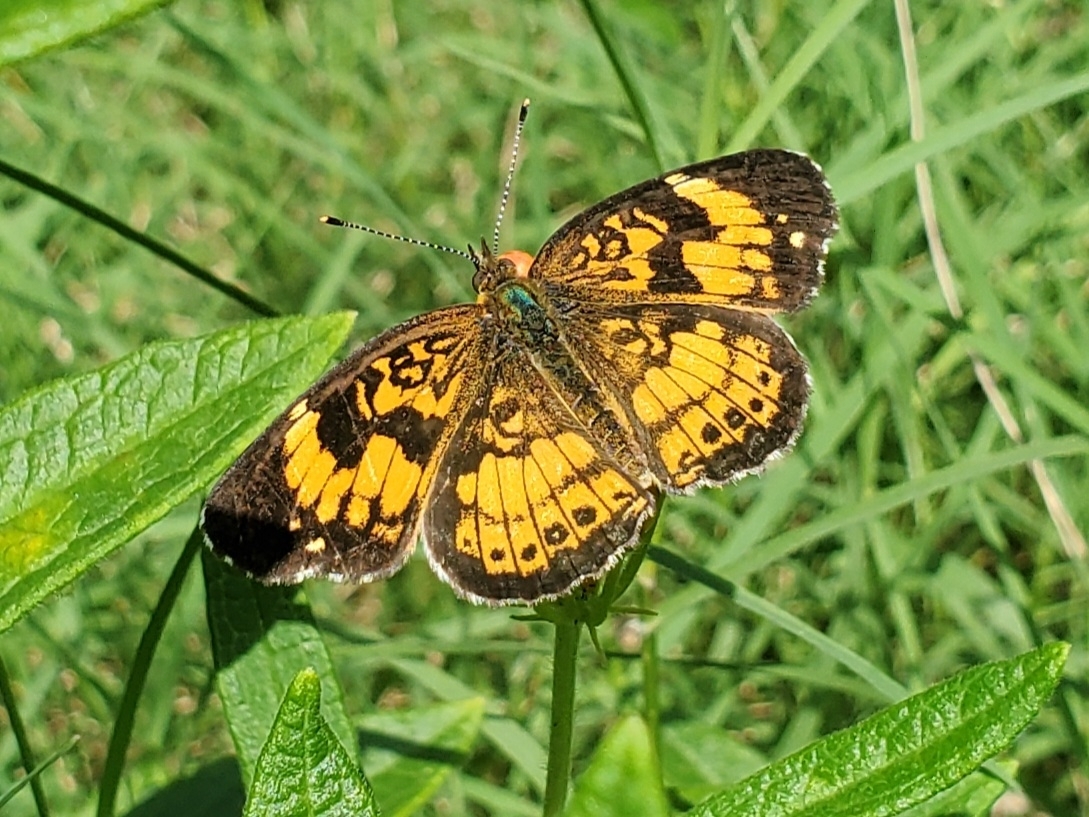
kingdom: Animalia
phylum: Arthropoda
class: Insecta
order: Lepidoptera
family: Nymphalidae
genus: Chlosyne
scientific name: Chlosyne nycteis
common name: Silvery checkerspot
